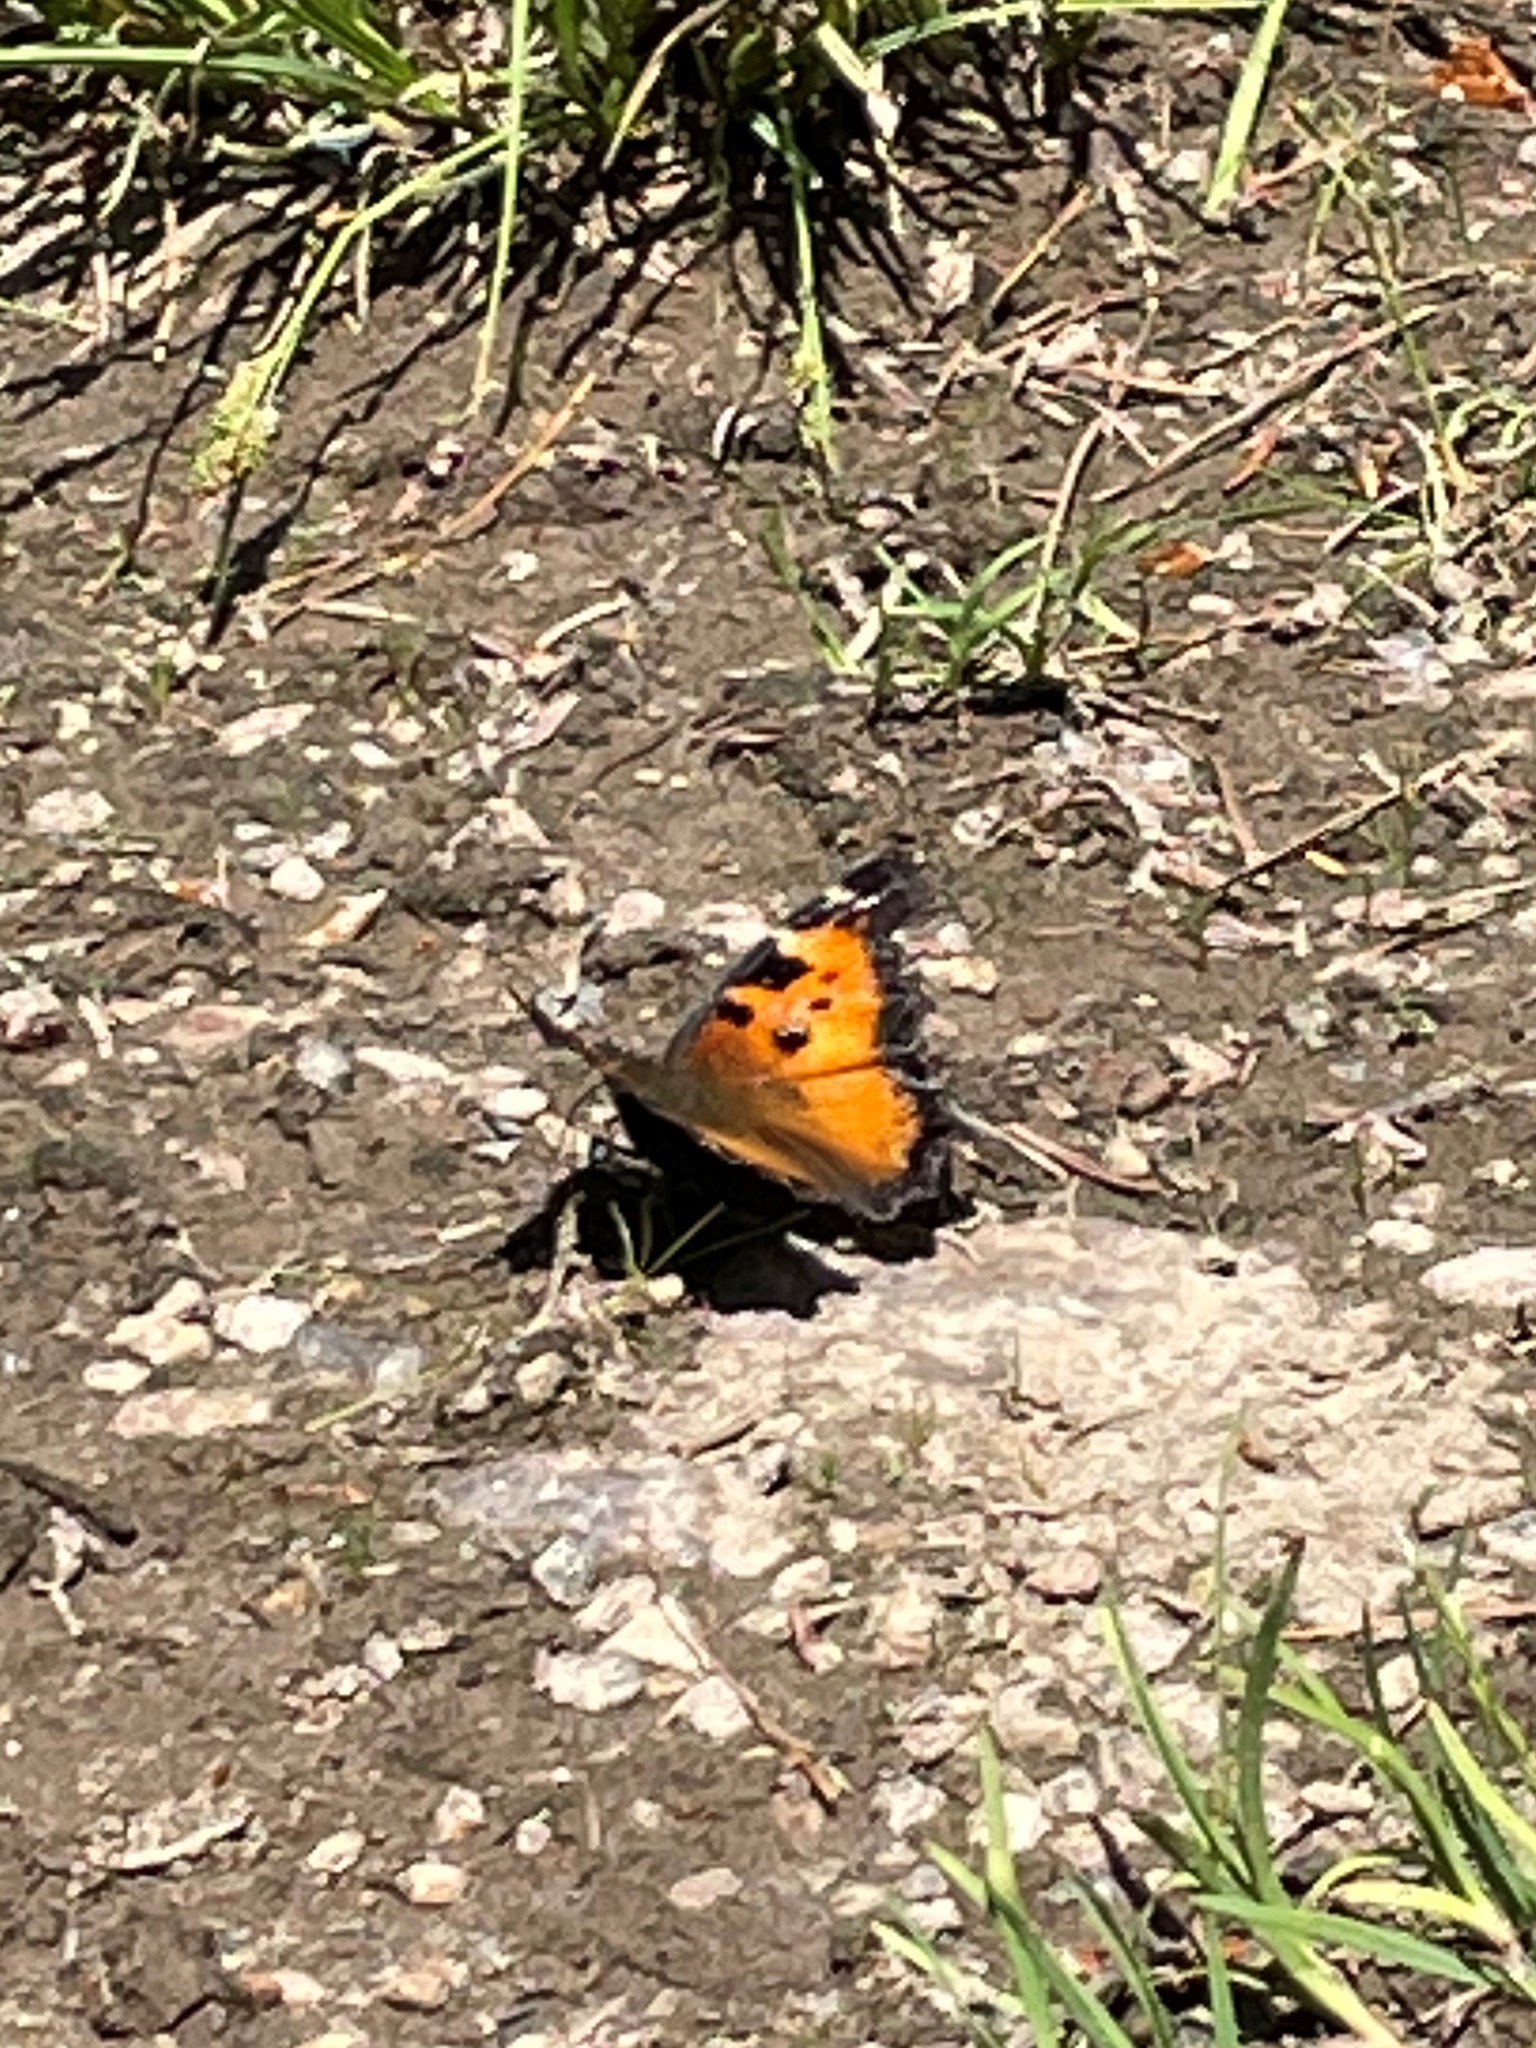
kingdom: Animalia
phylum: Arthropoda
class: Insecta
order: Lepidoptera
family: Nymphalidae
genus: Nymphalis
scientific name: Nymphalis californica
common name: California tortoiseshell
